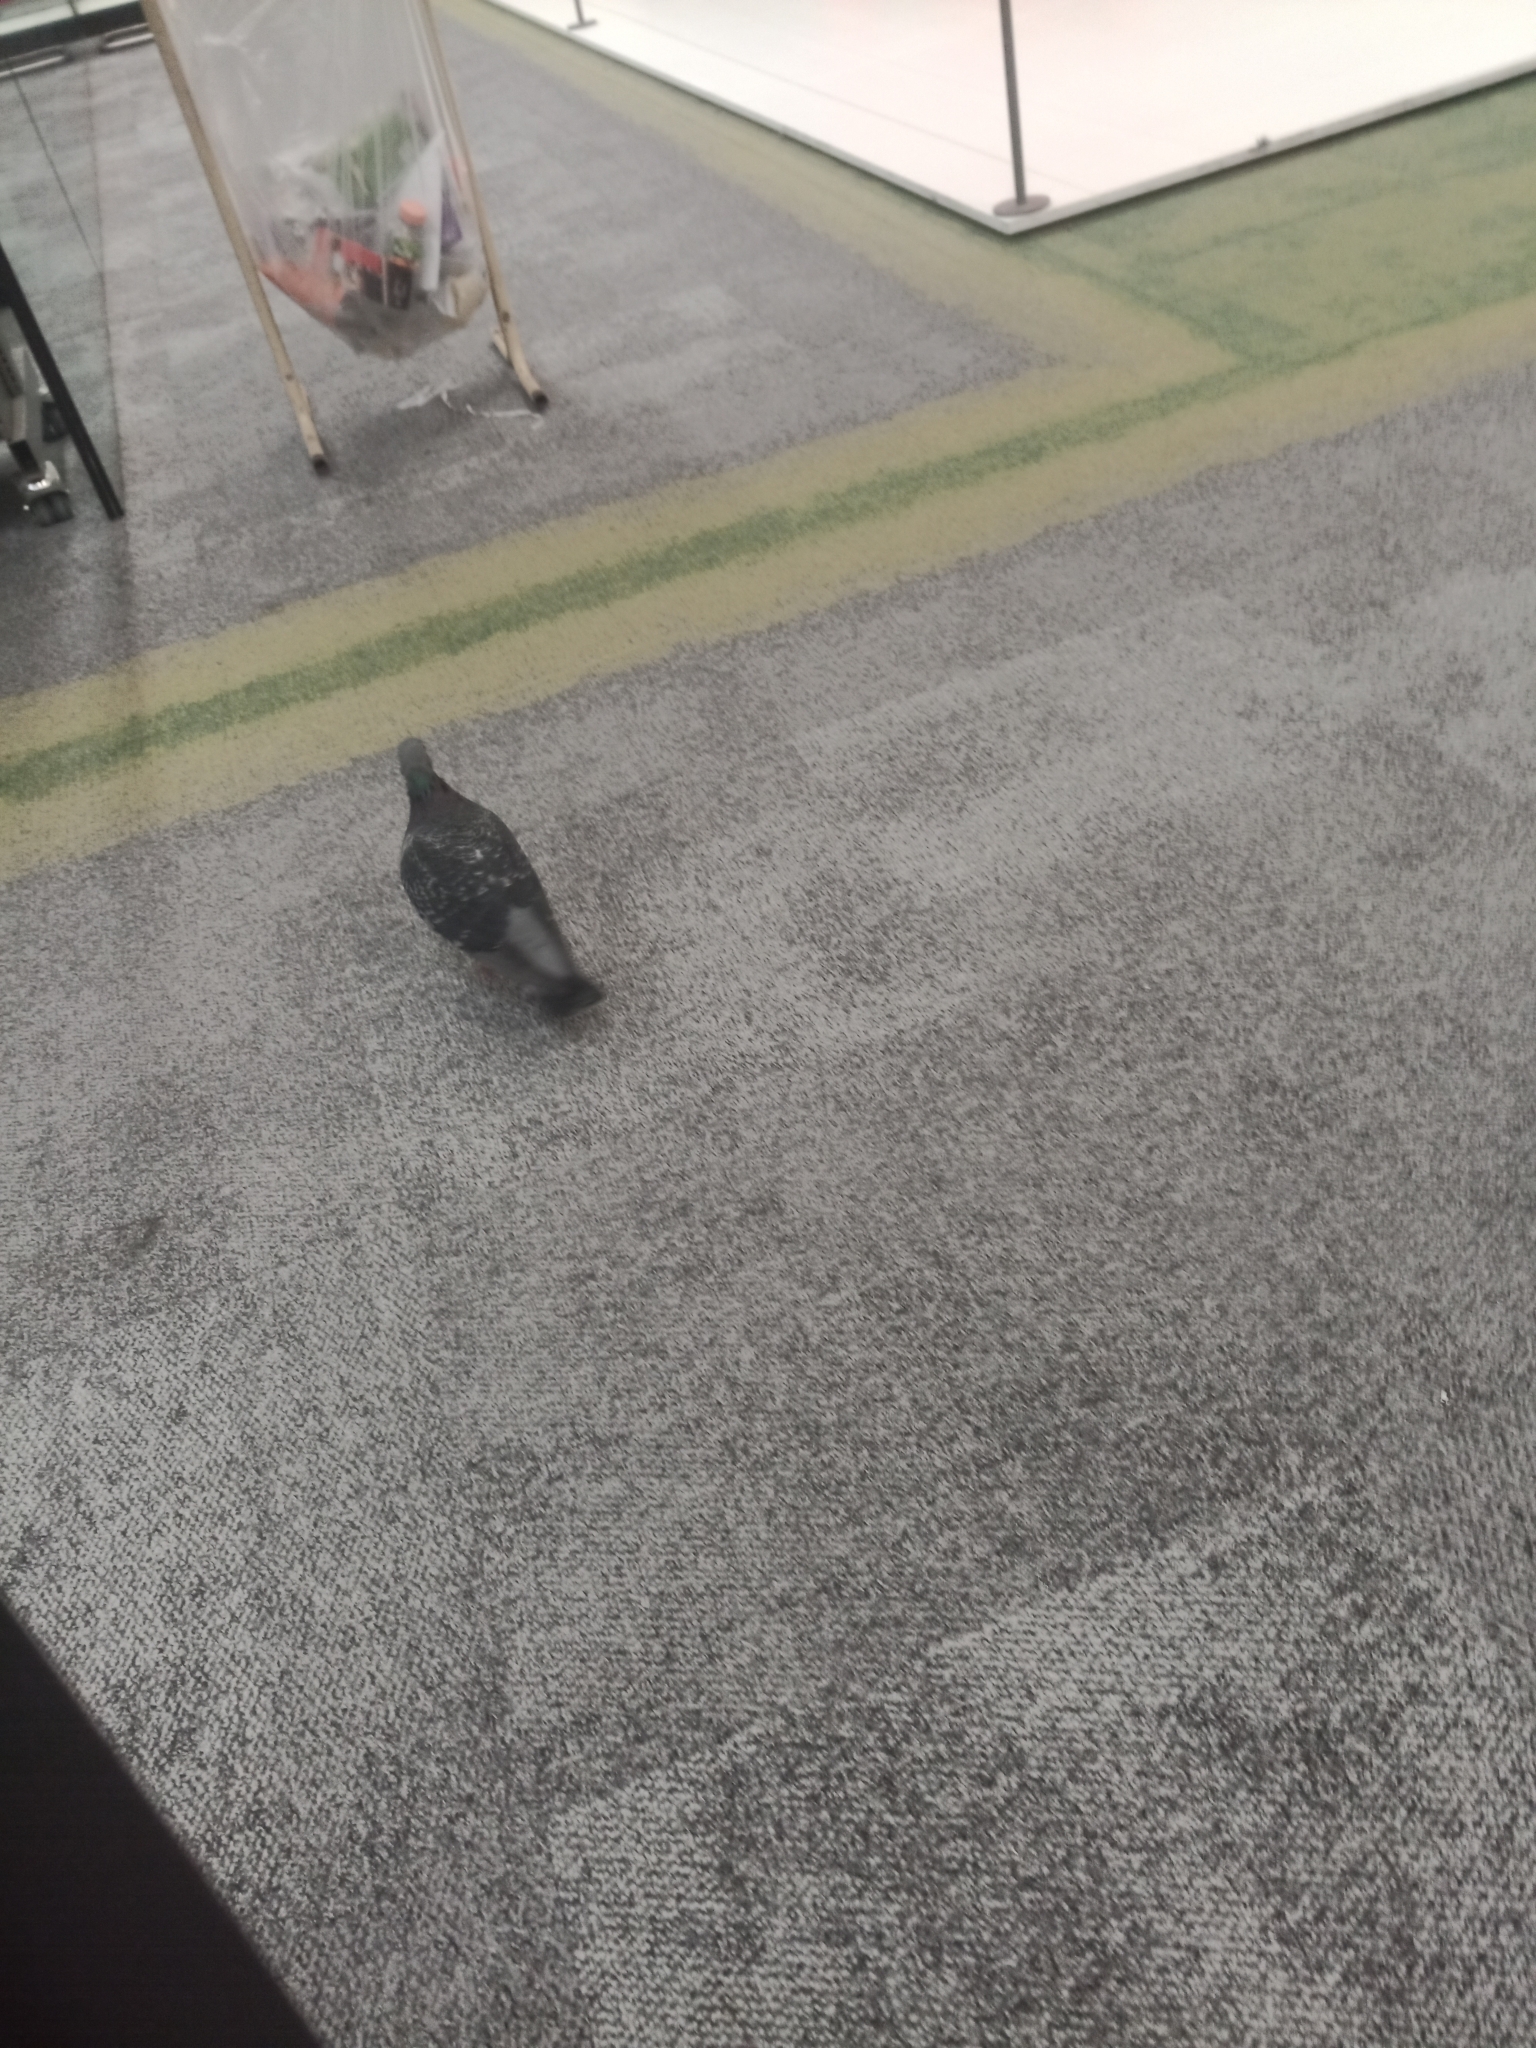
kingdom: Animalia
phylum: Chordata
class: Aves
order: Columbiformes
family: Columbidae
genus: Columba
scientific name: Columba livia
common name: Rock pigeon
